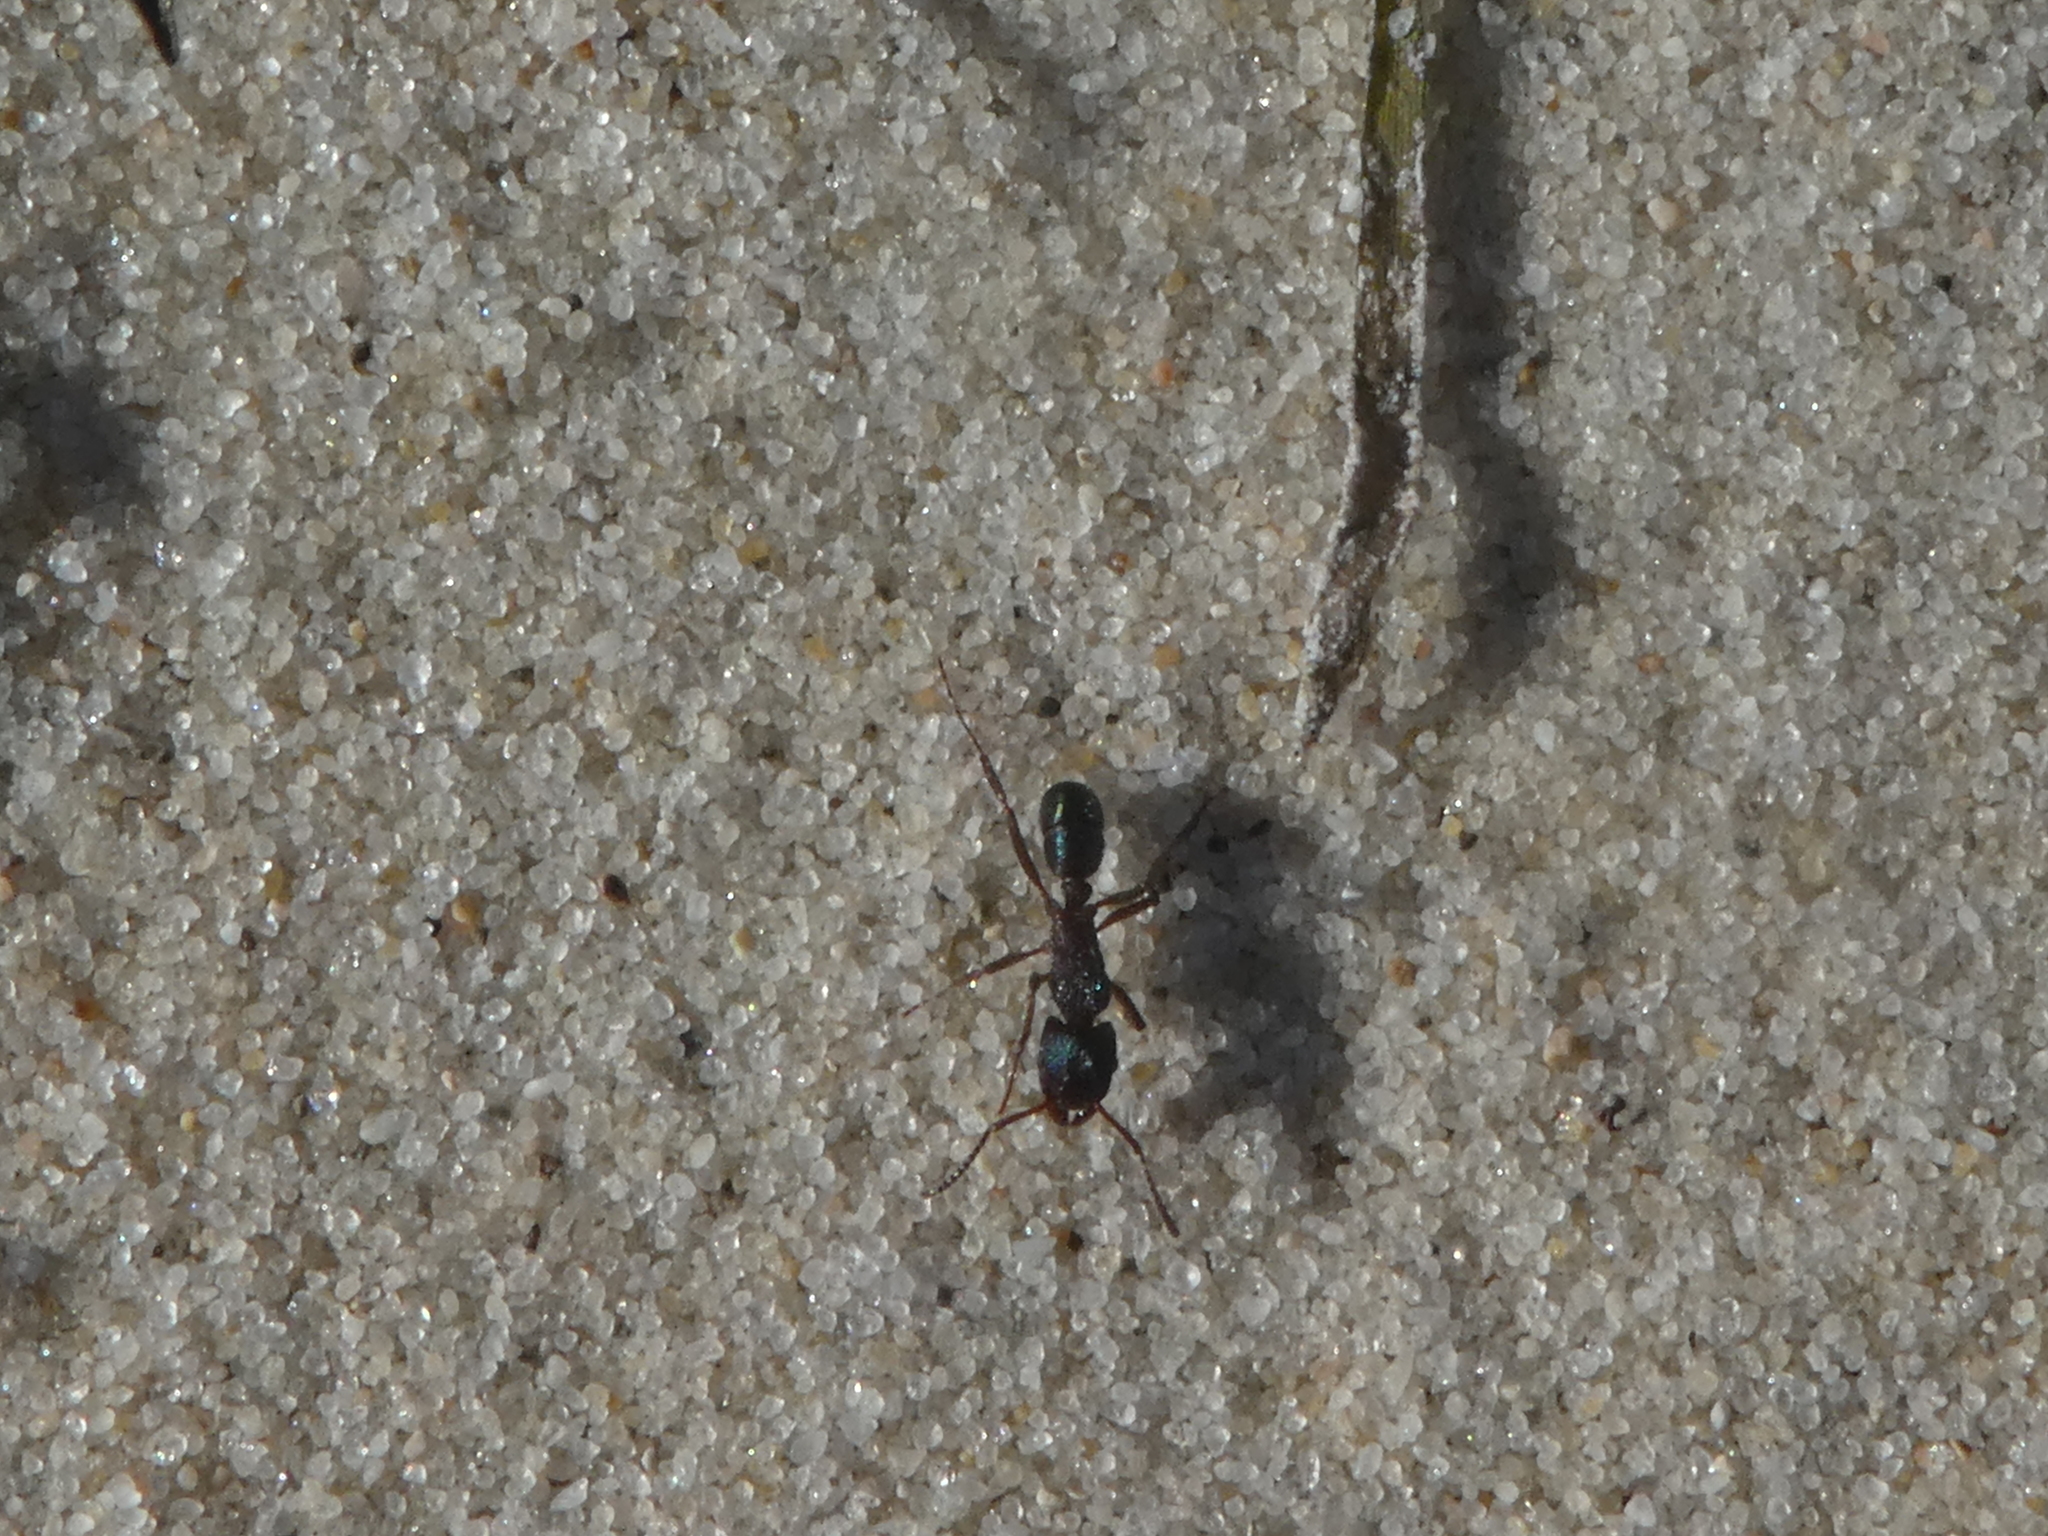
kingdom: Animalia
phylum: Arthropoda
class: Insecta
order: Hymenoptera
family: Formicidae
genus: Rhytidoponera
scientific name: Rhytidoponera metallica
